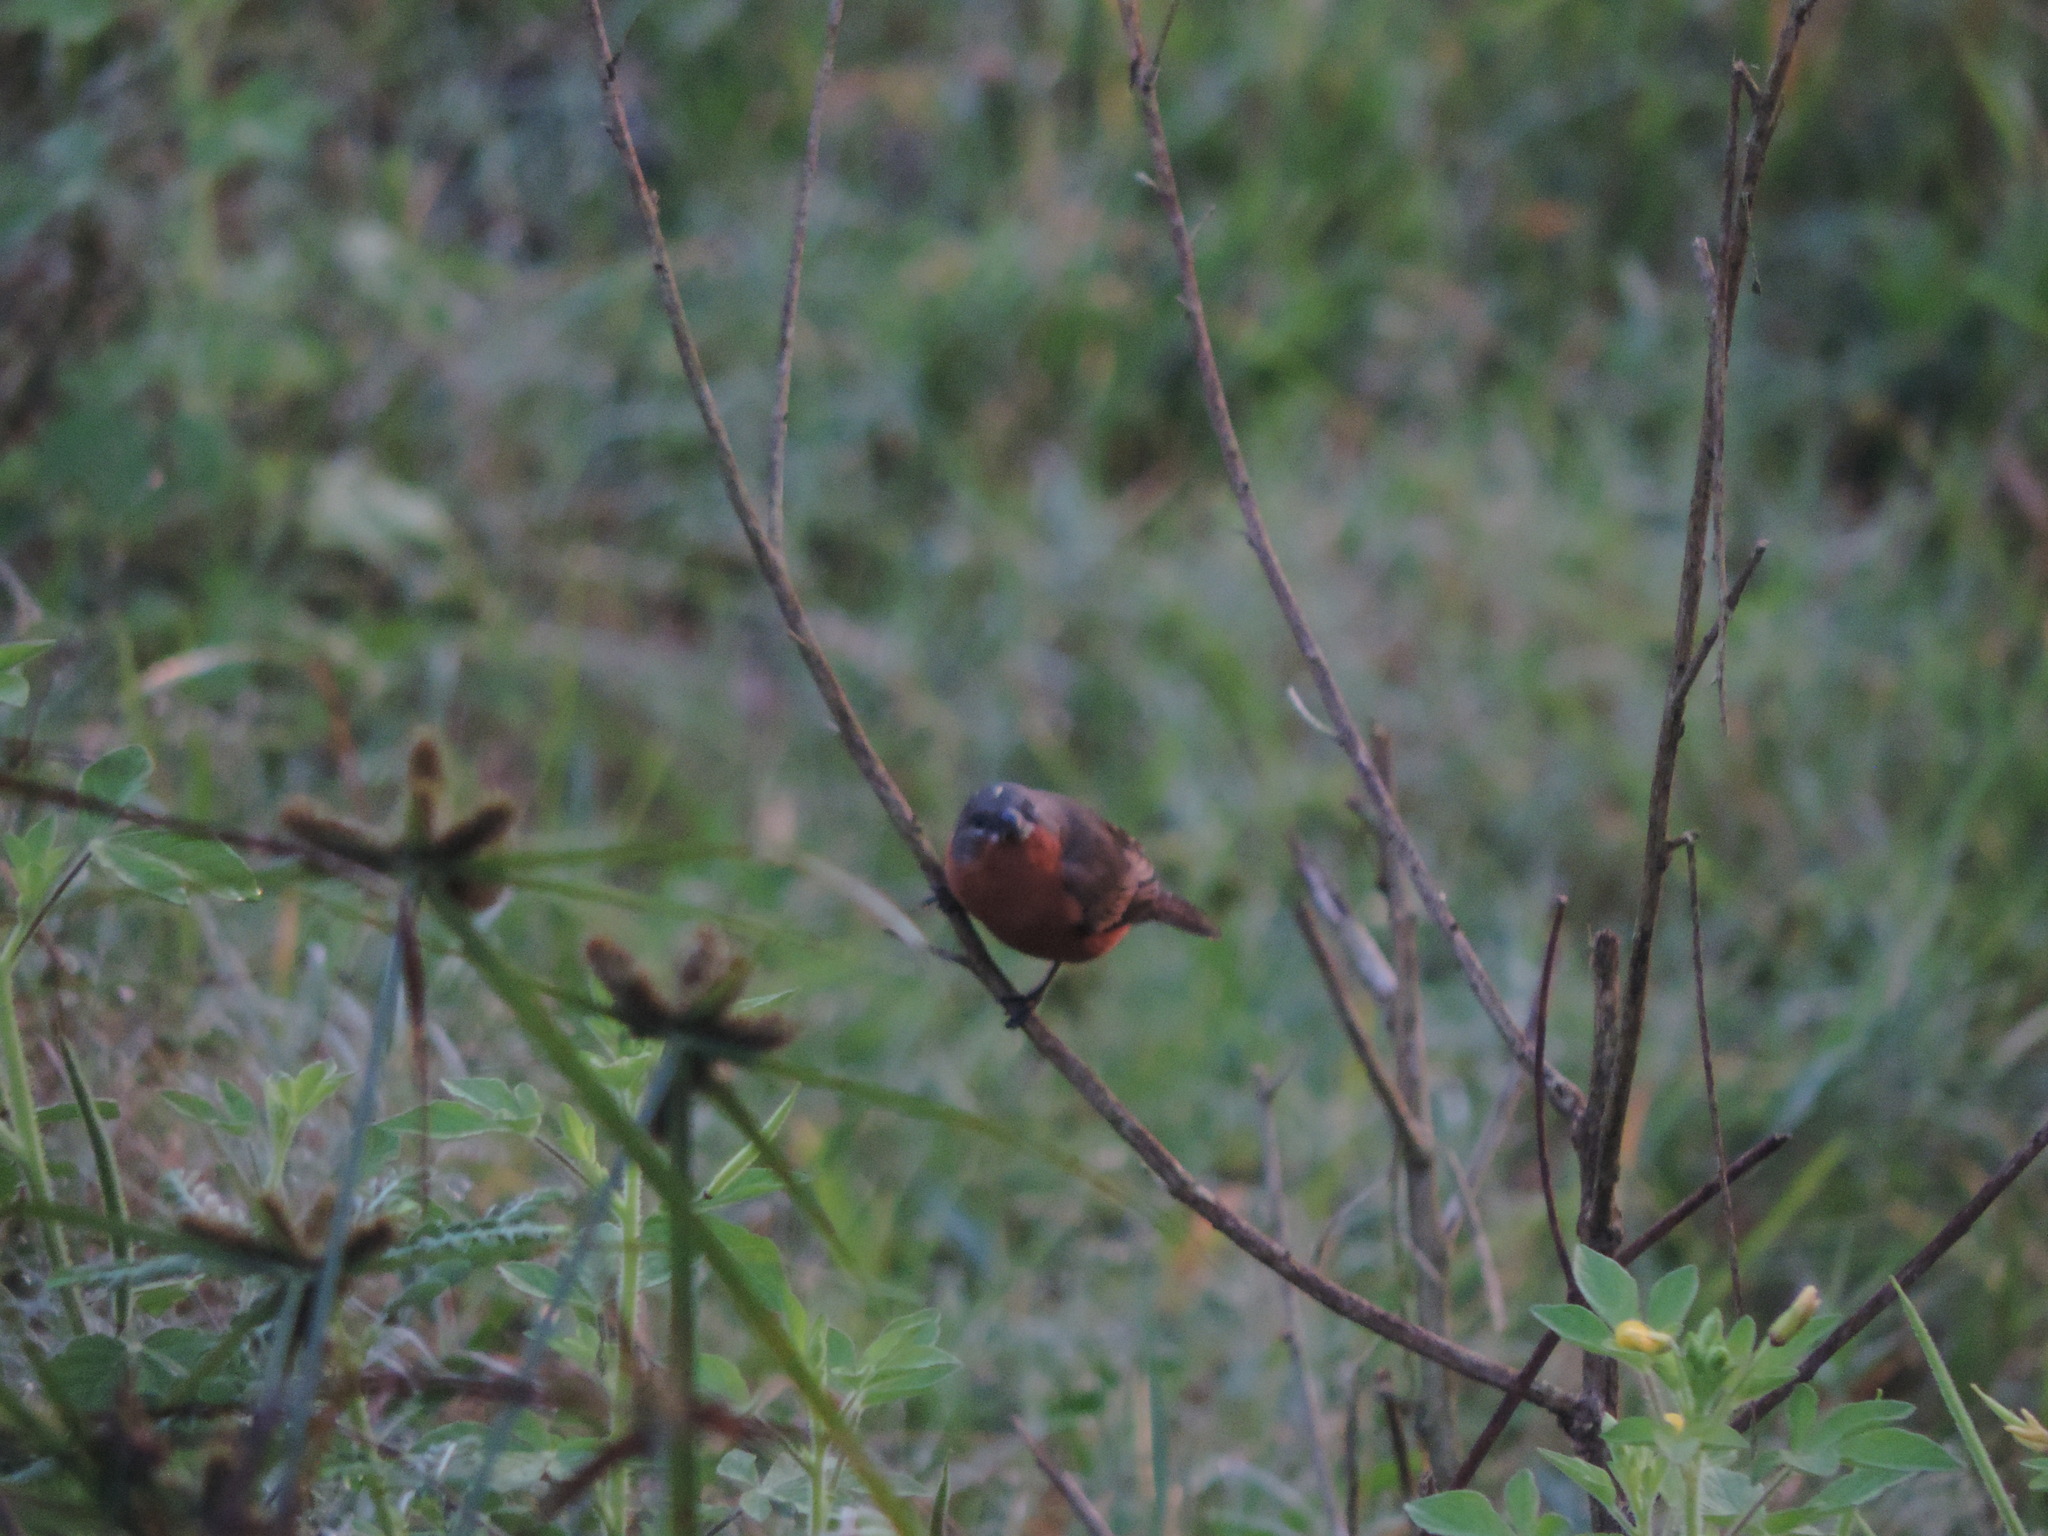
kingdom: Animalia
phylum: Chordata
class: Aves
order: Passeriformes
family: Thraupidae
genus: Sporophila
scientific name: Sporophila minuta
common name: Ruddy-breasted seedeater
